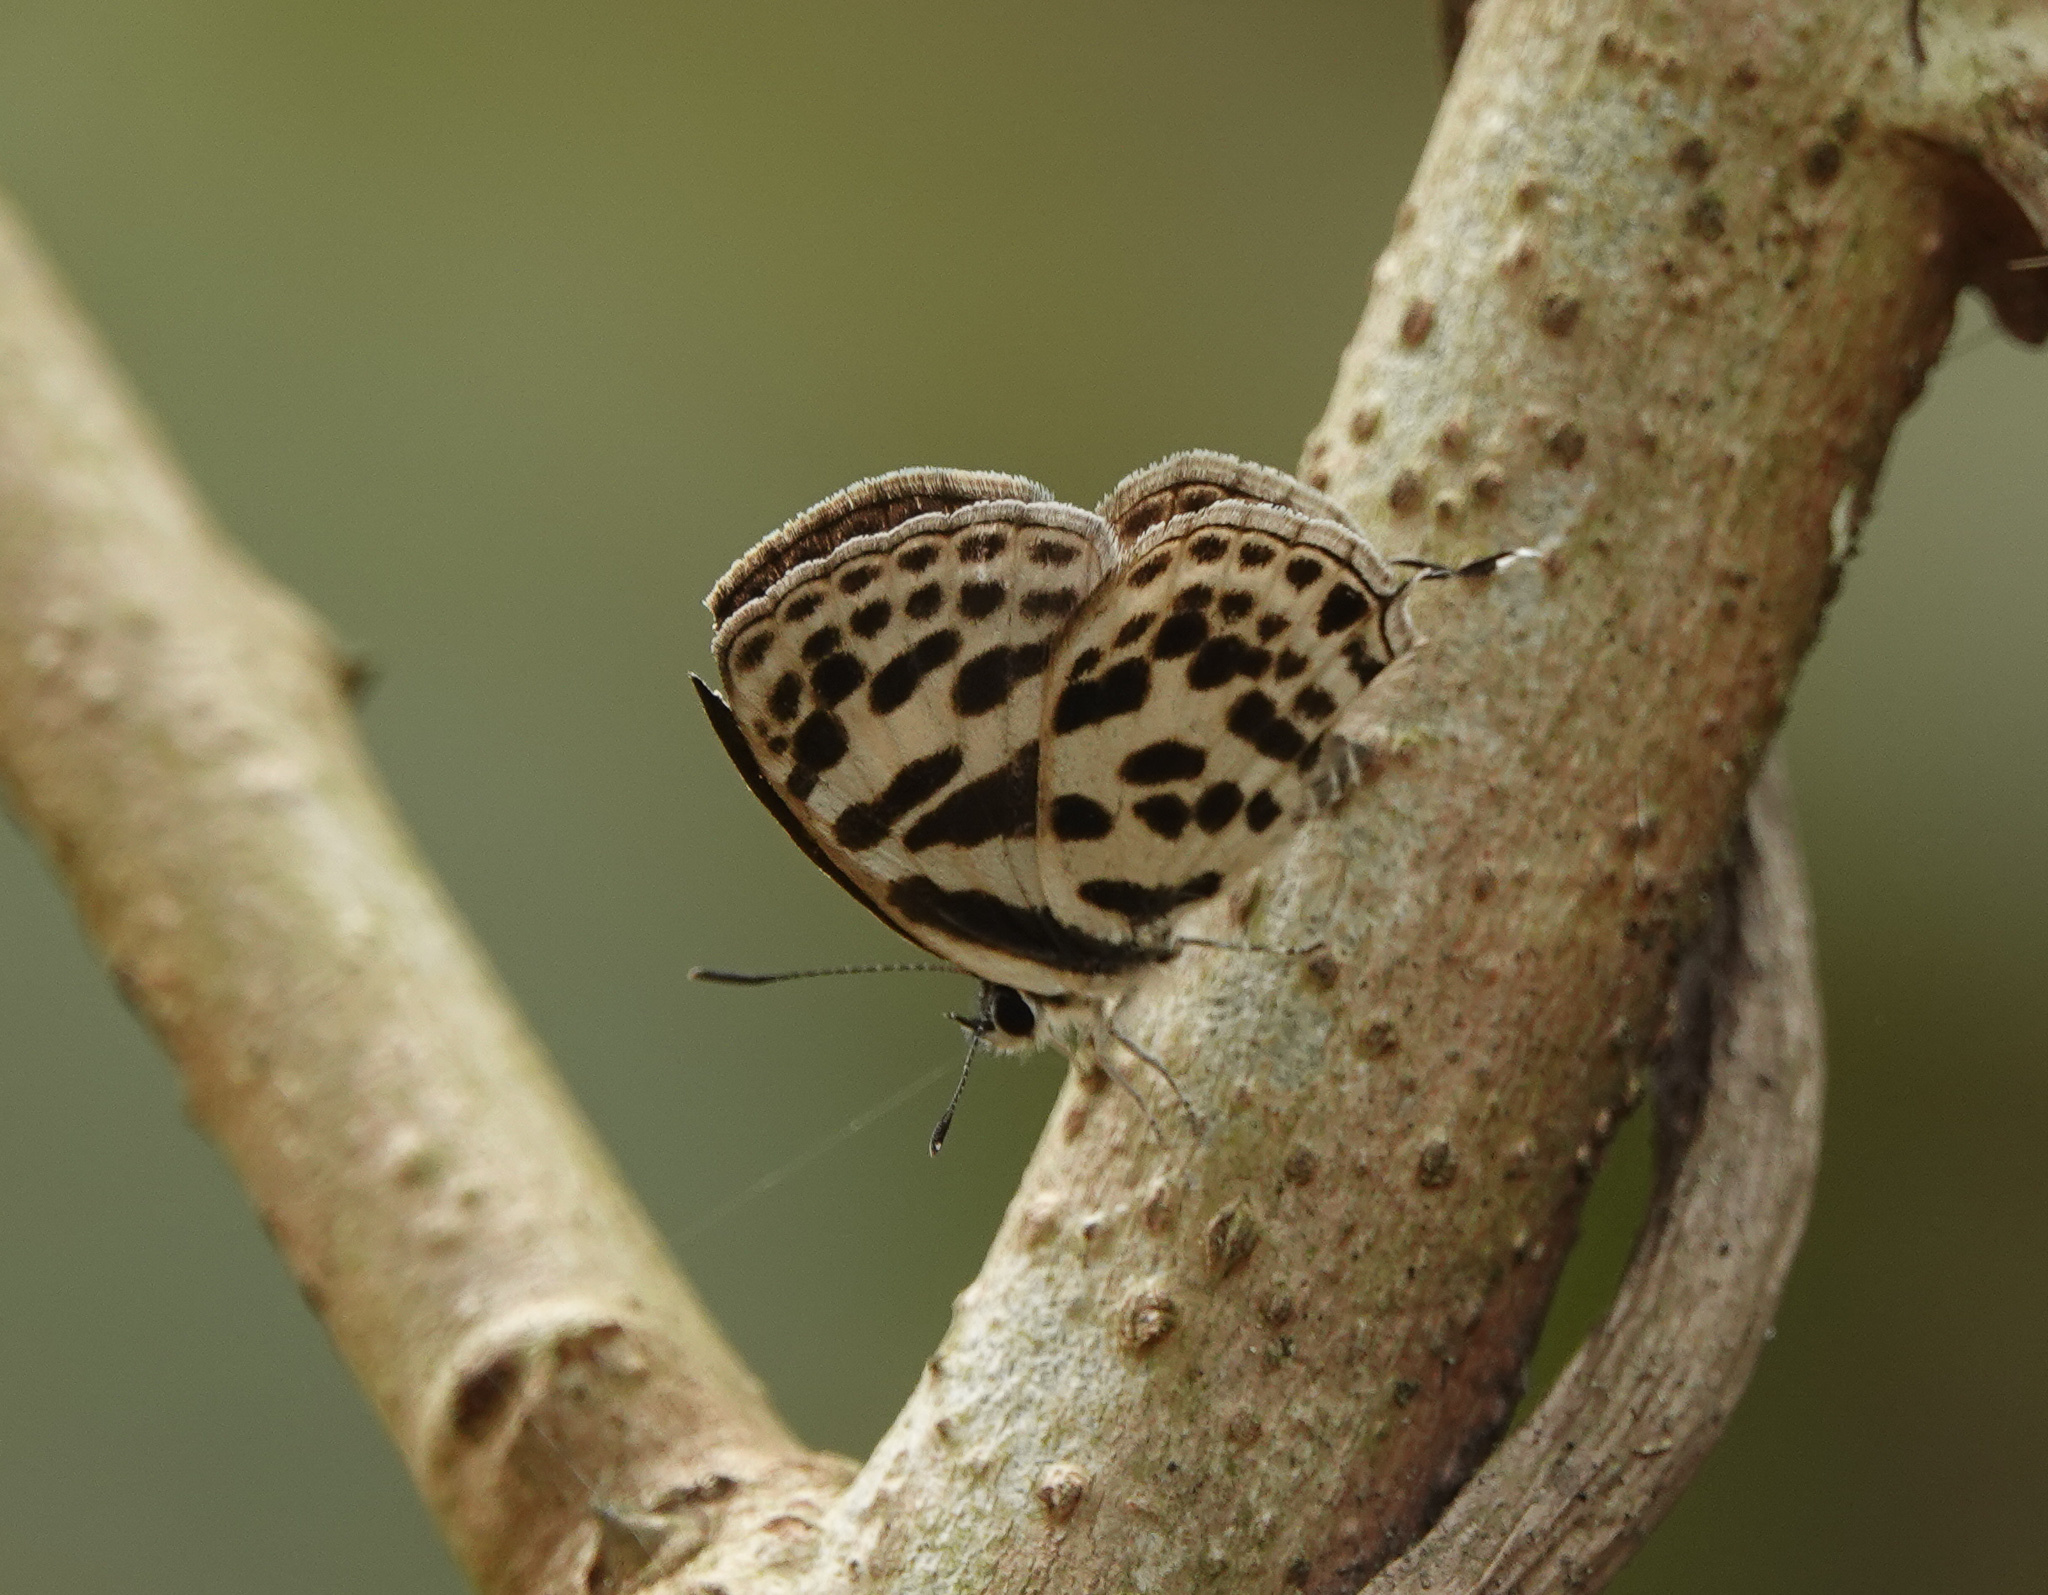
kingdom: Animalia
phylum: Arthropoda
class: Insecta
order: Lepidoptera
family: Lycaenidae
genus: Tarucus
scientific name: Tarucus
